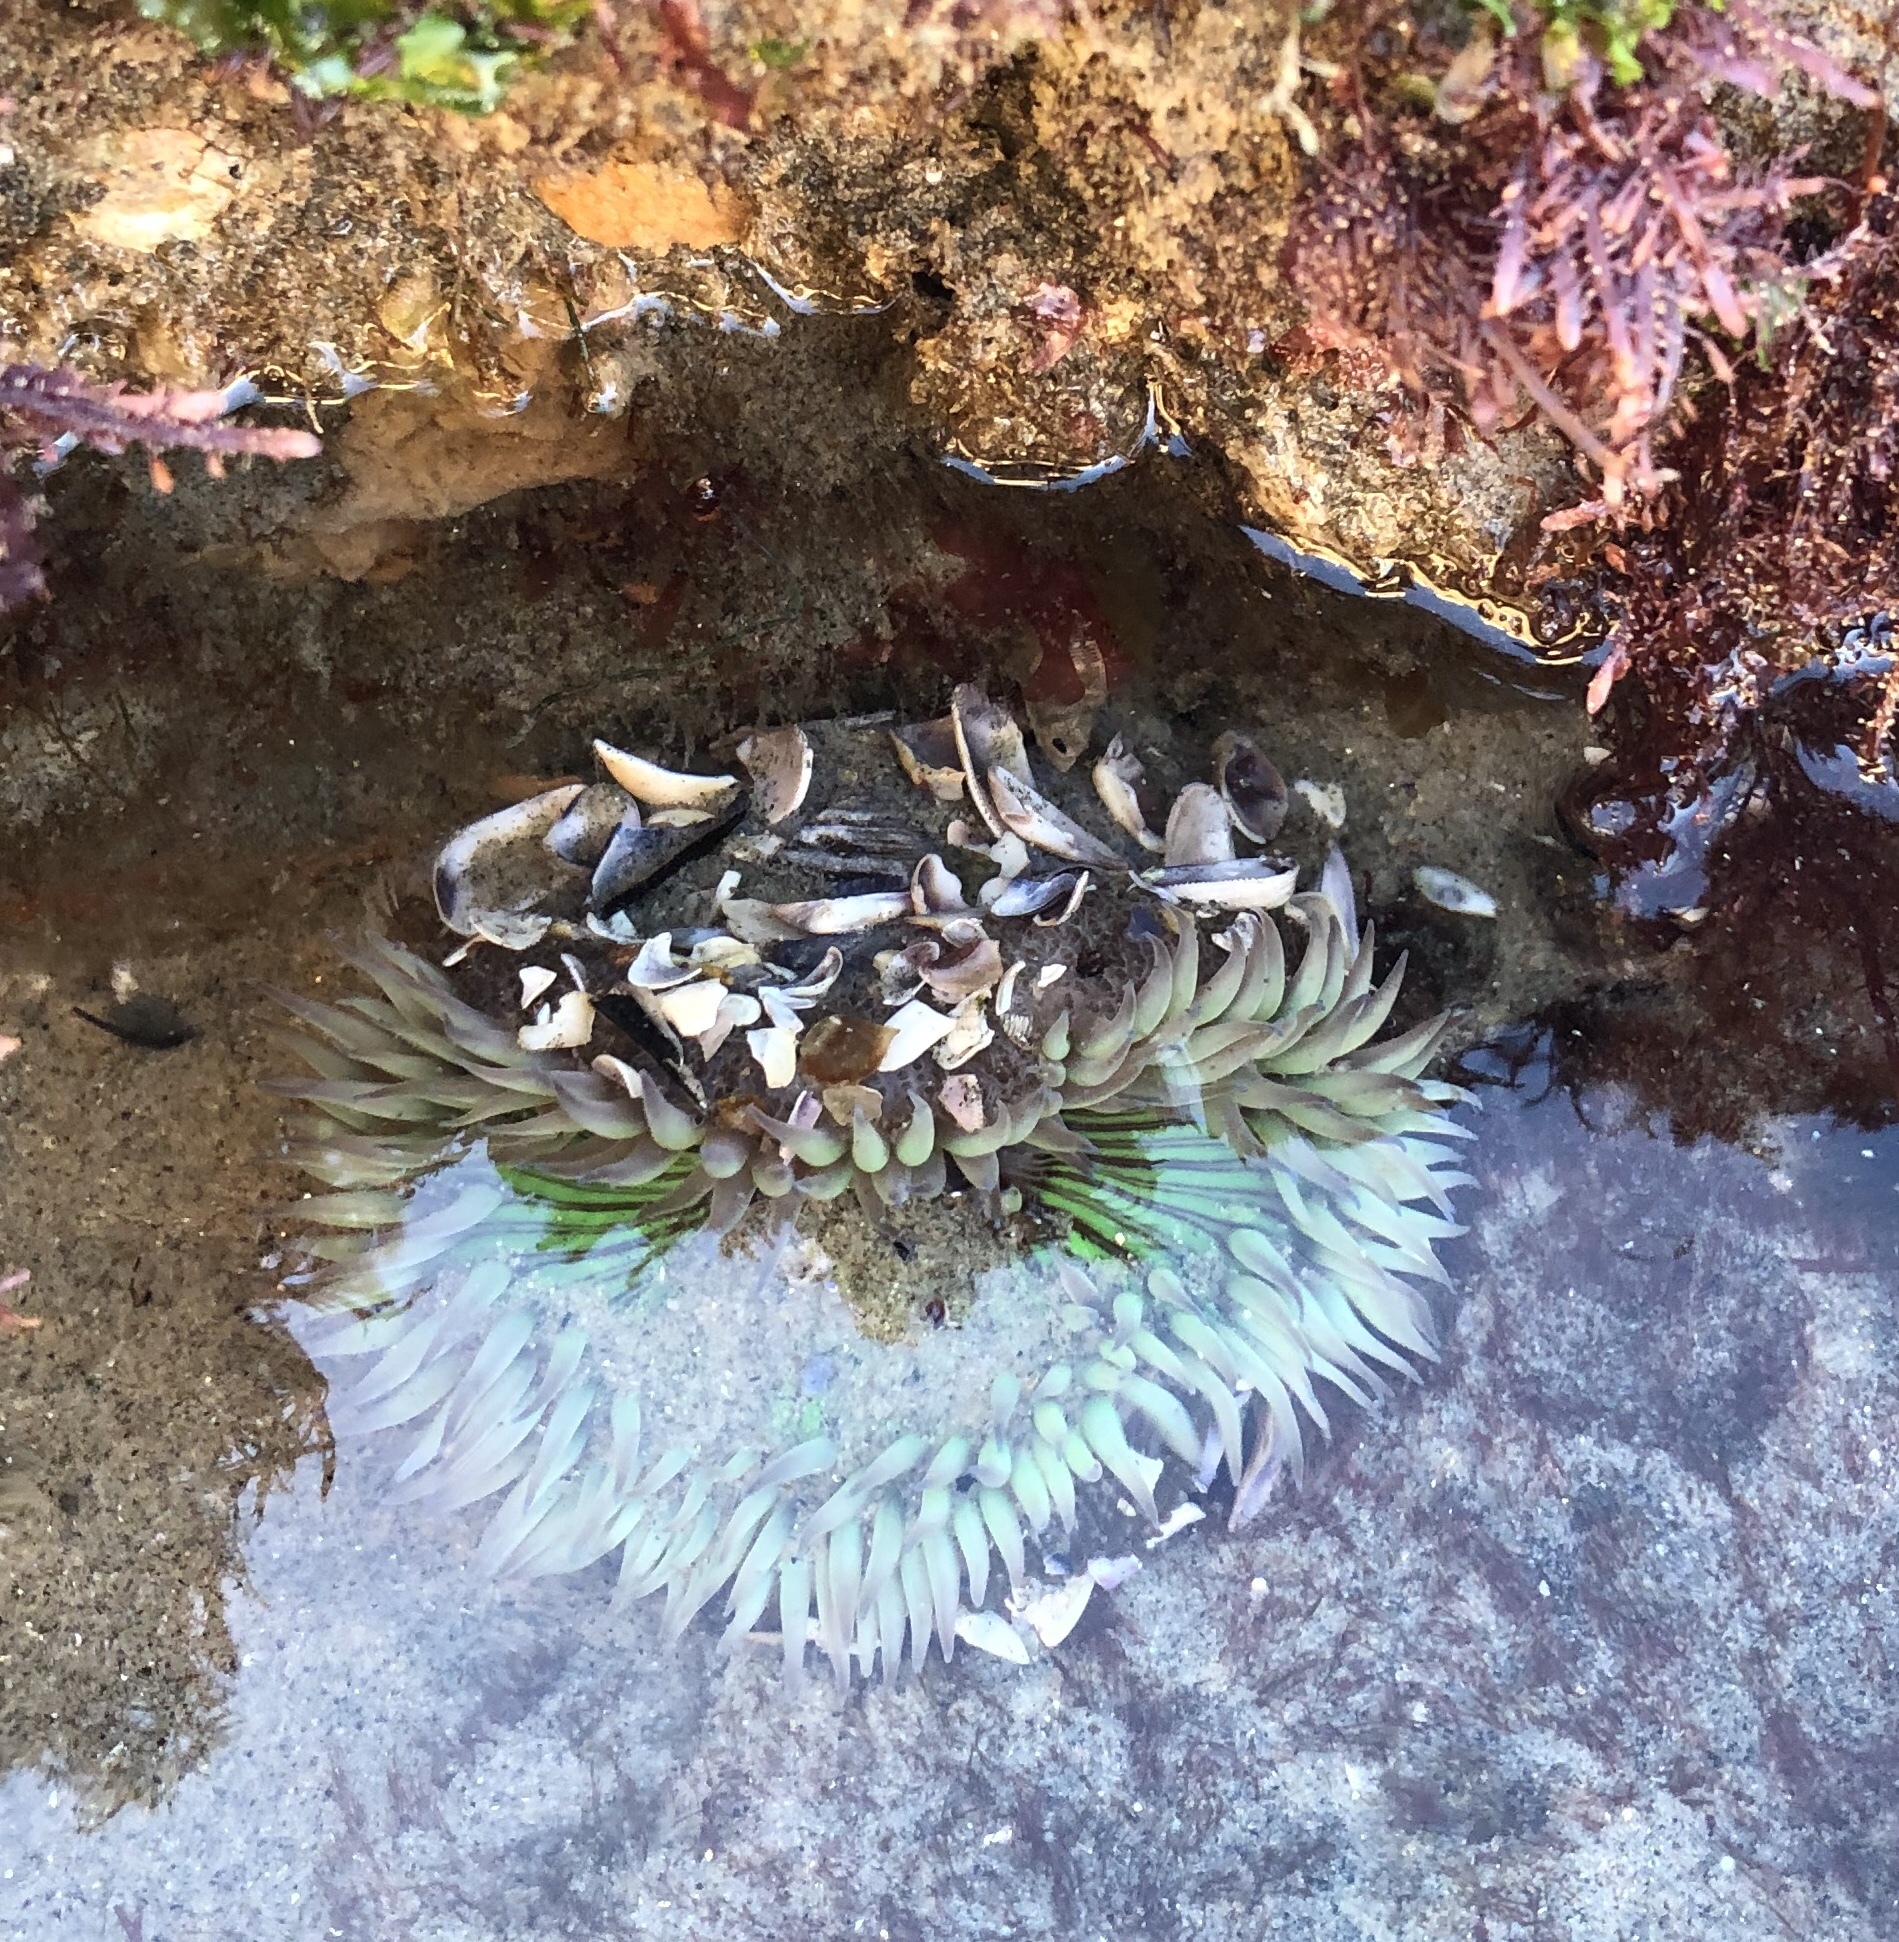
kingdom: Animalia
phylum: Cnidaria
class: Anthozoa
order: Actiniaria
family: Actiniidae
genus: Anthopleura
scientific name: Anthopleura sola
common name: Sun anemone
